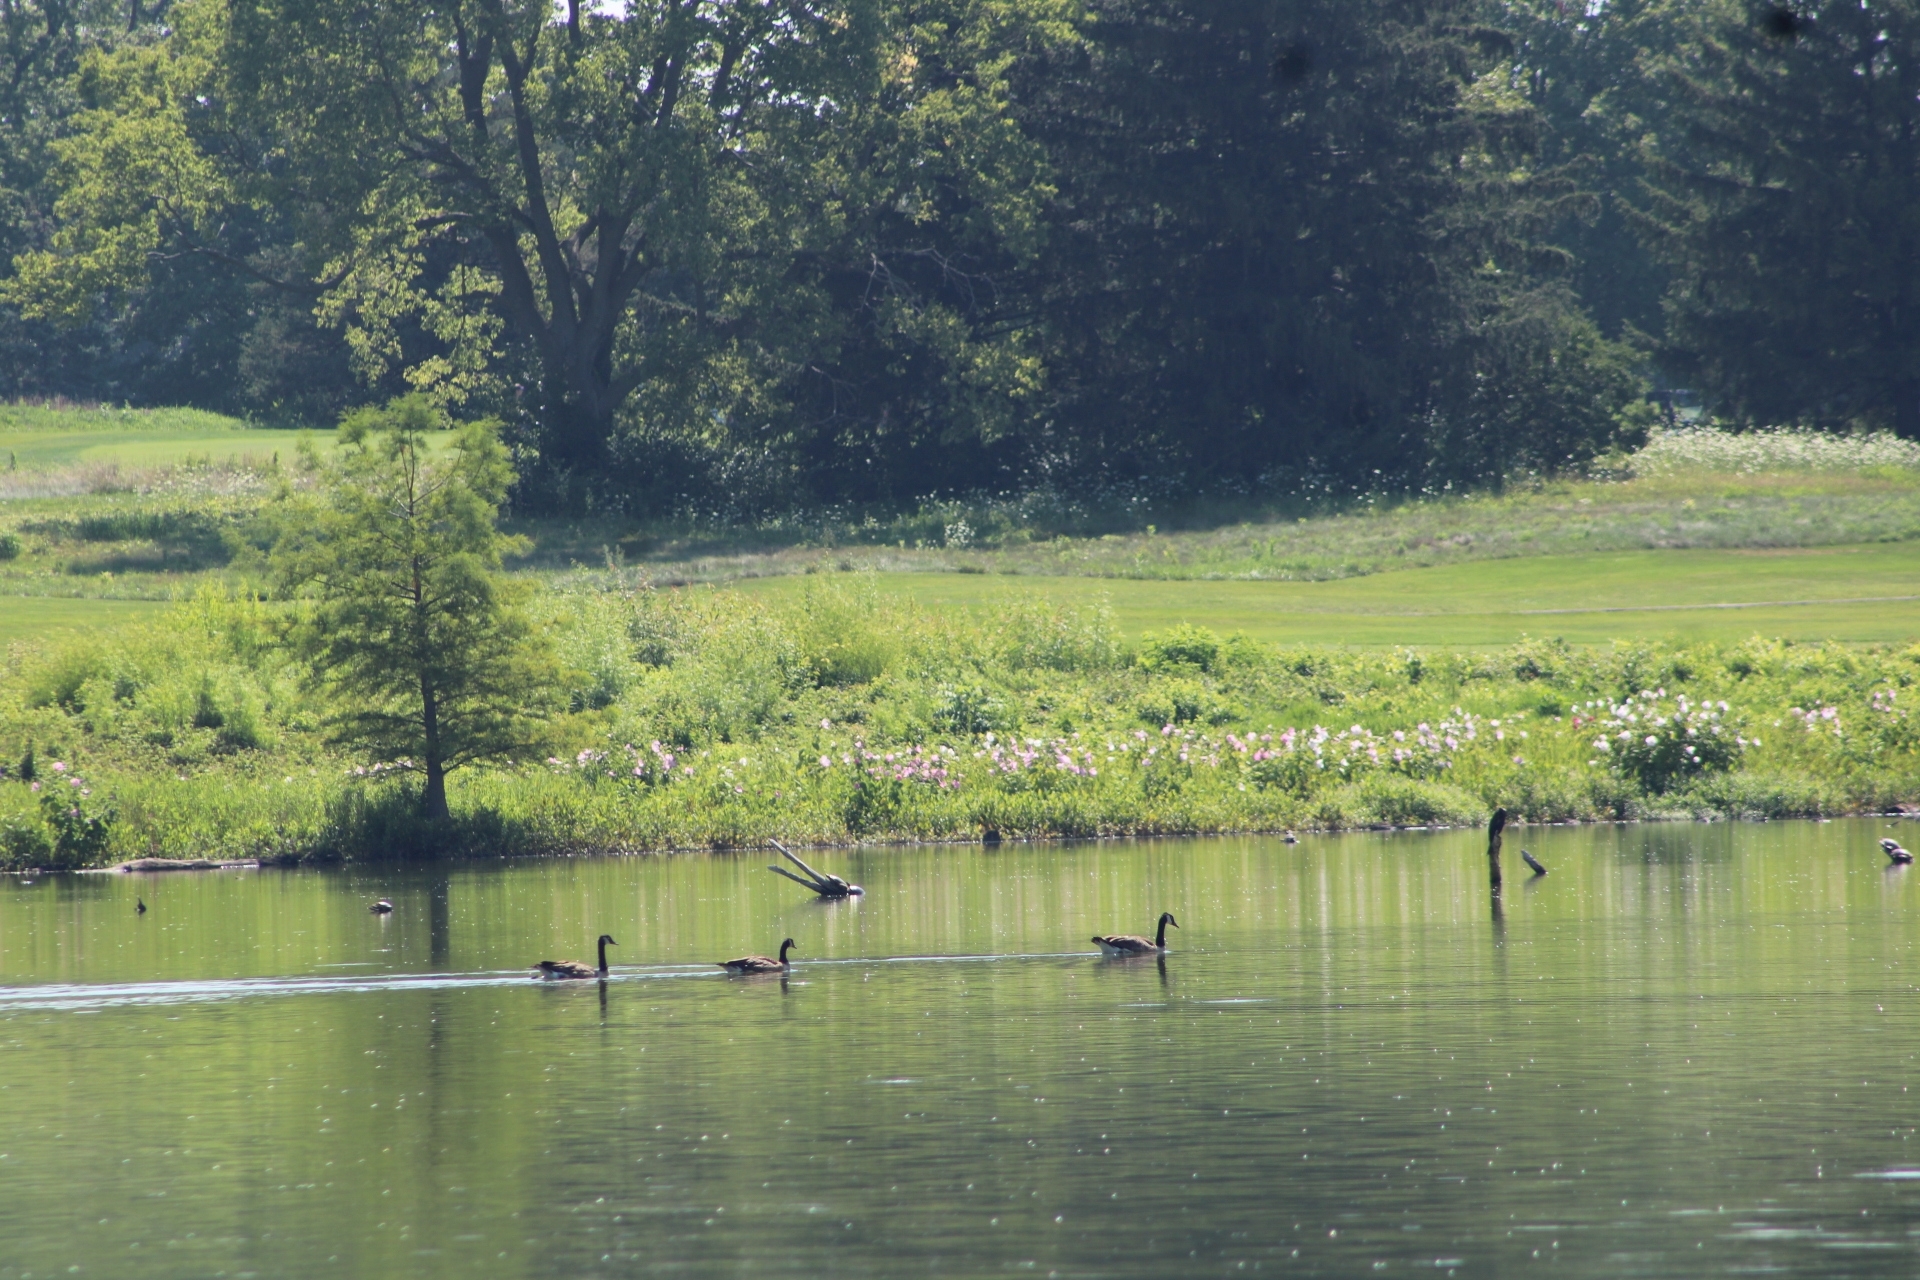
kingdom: Animalia
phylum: Chordata
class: Aves
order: Anseriformes
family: Anatidae
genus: Branta
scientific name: Branta canadensis
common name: Canada goose
